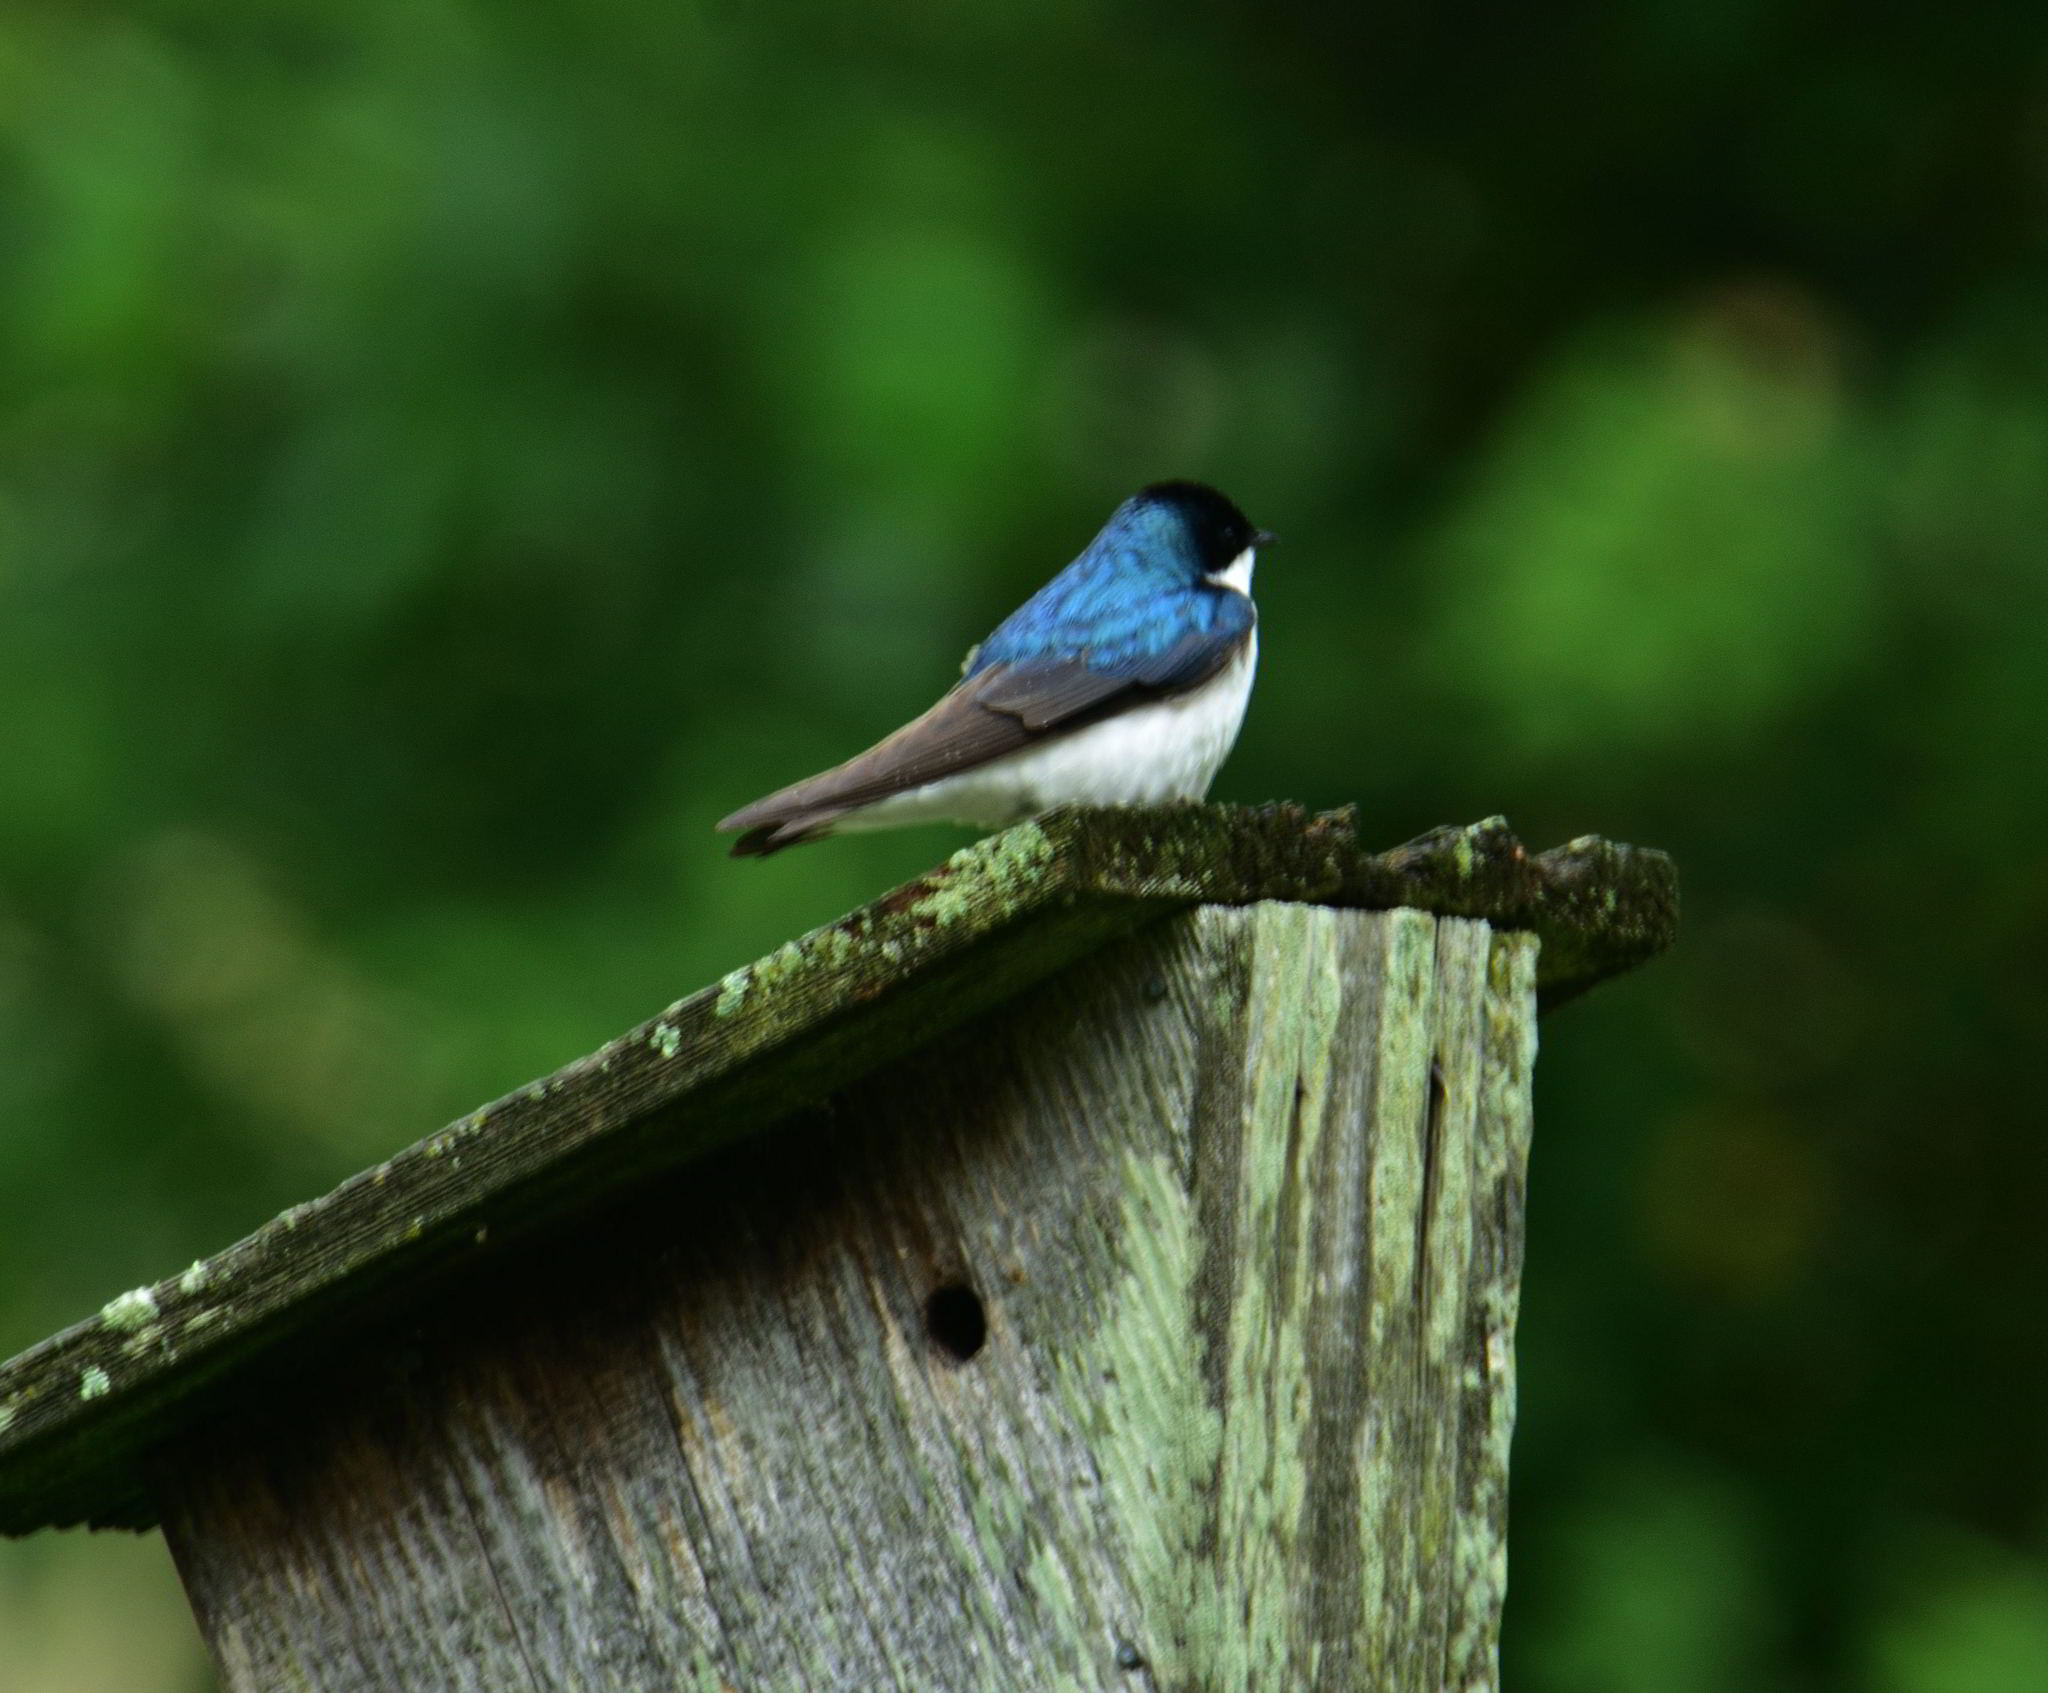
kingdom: Animalia
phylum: Chordata
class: Aves
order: Passeriformes
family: Hirundinidae
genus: Tachycineta
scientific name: Tachycineta bicolor
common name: Tree swallow
